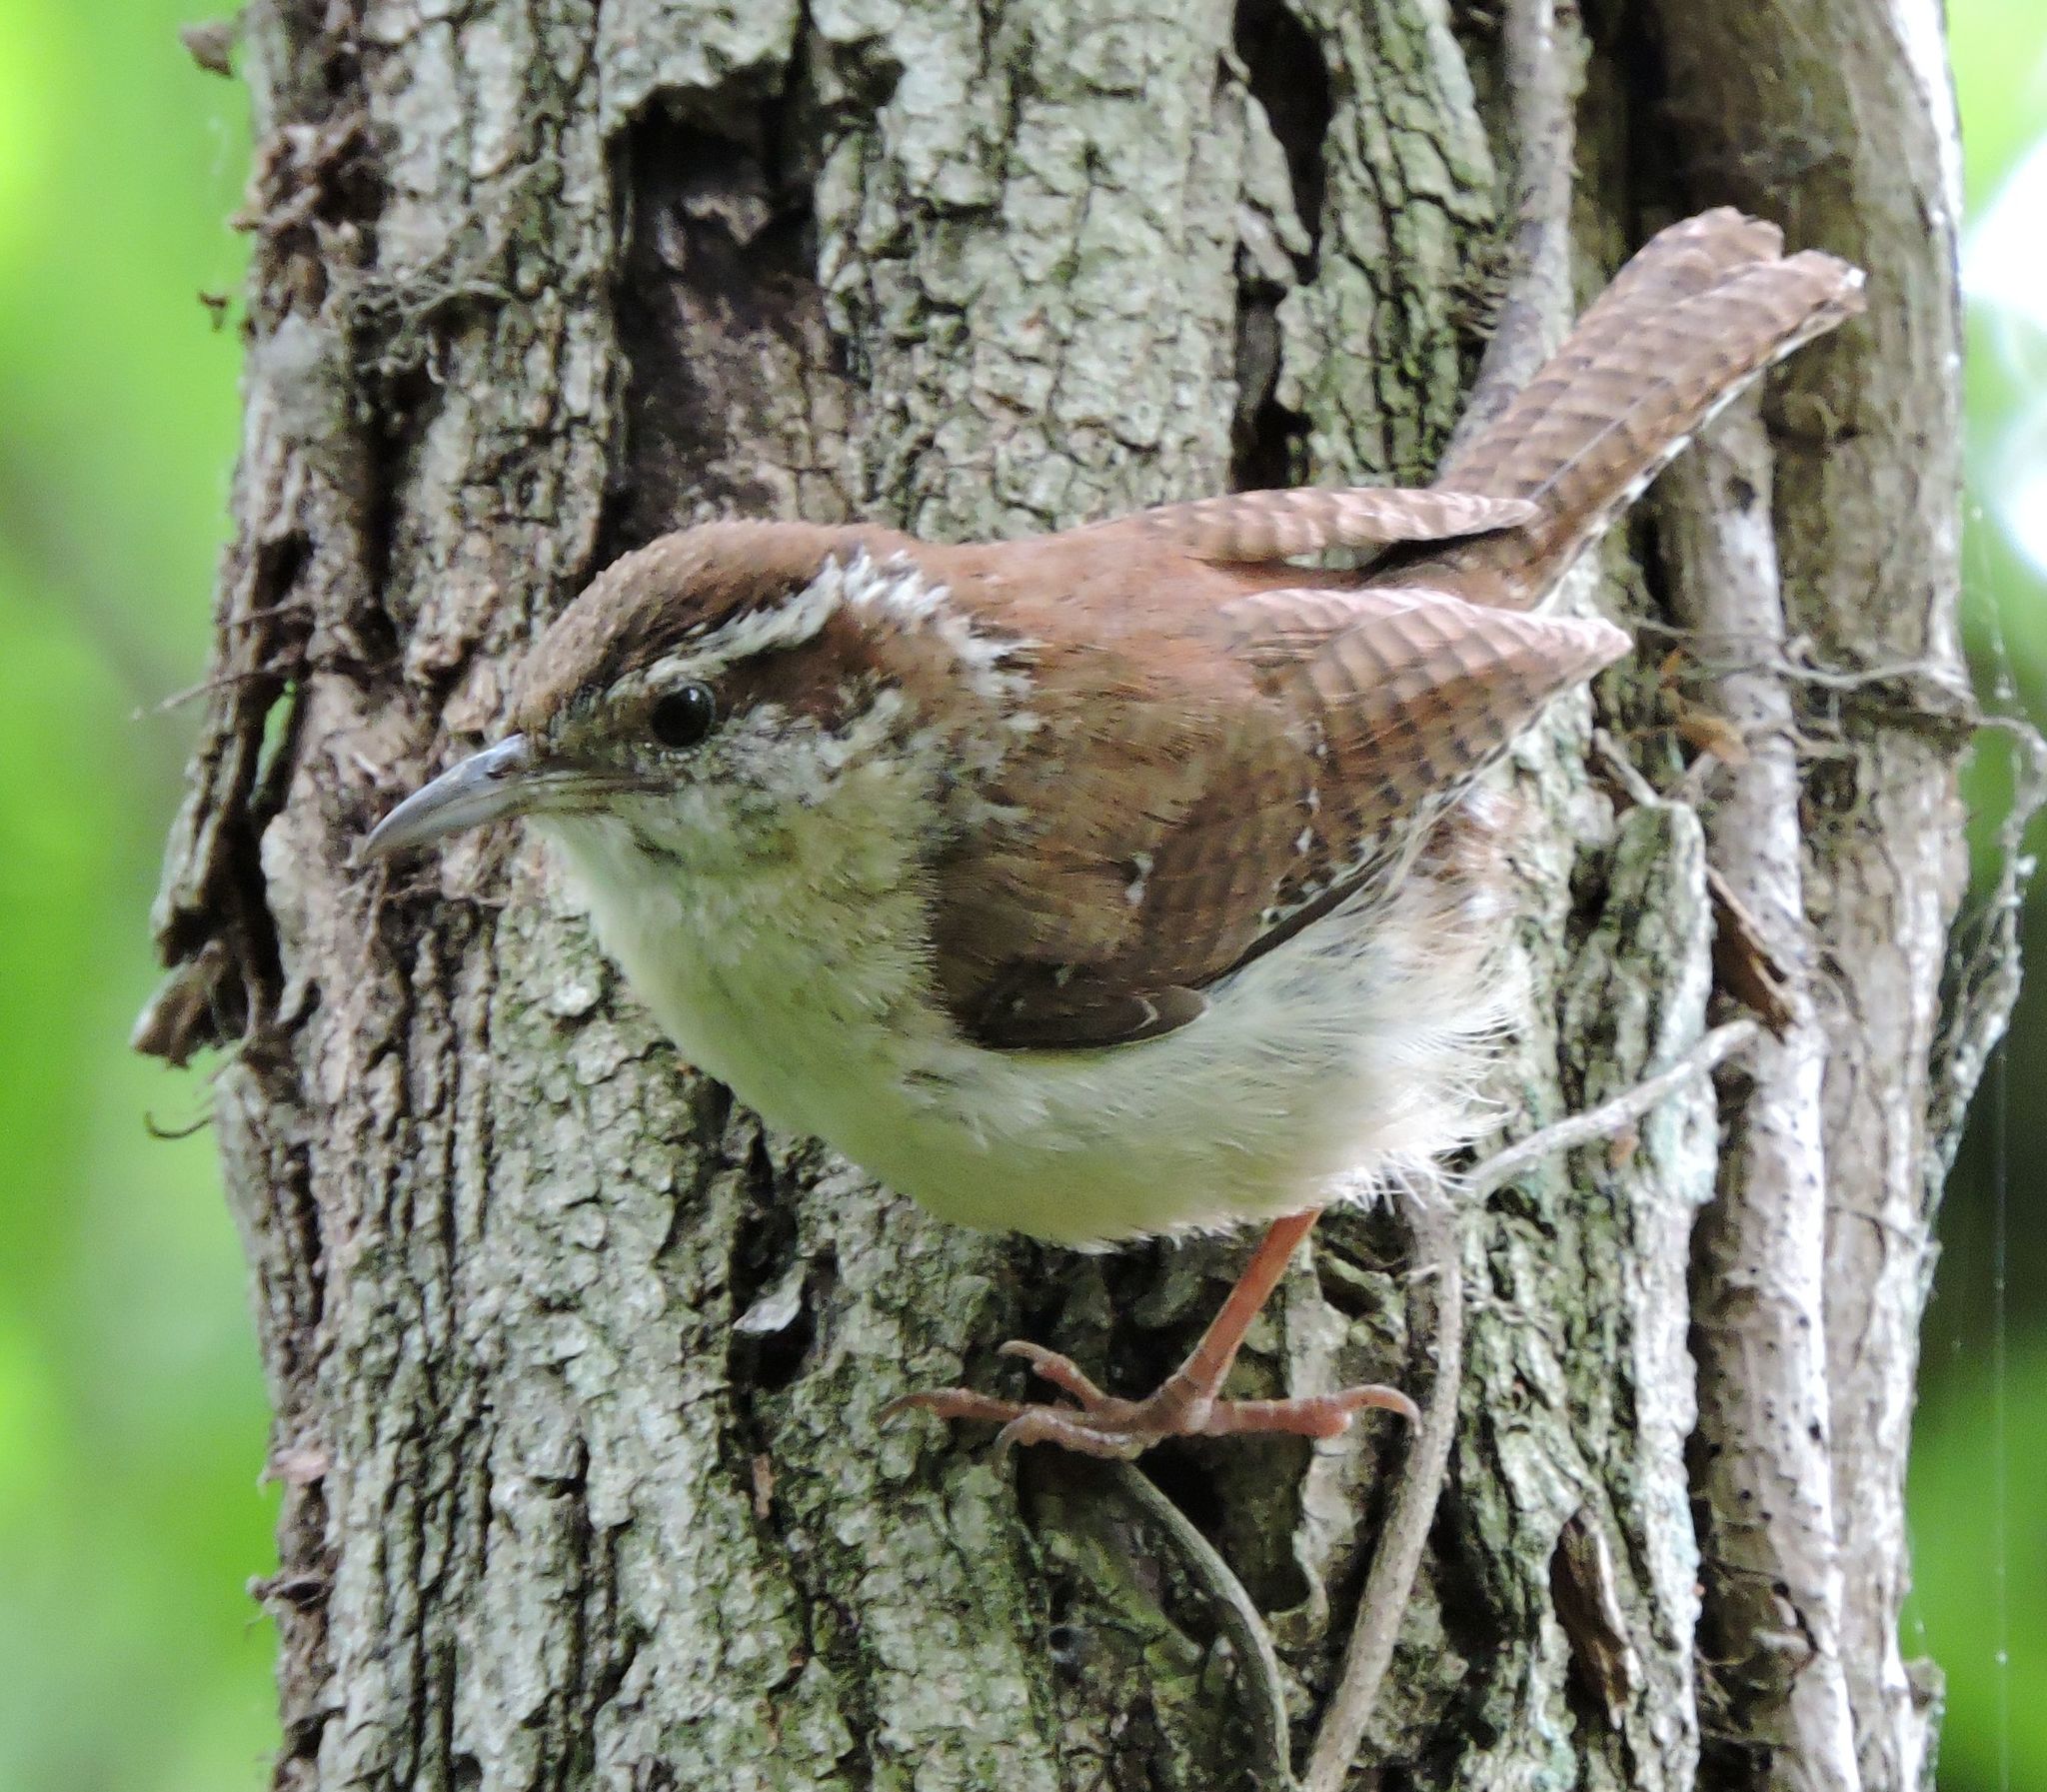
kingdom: Animalia
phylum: Chordata
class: Aves
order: Passeriformes
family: Troglodytidae
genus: Thryothorus
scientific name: Thryothorus ludovicianus
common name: Carolina wren
